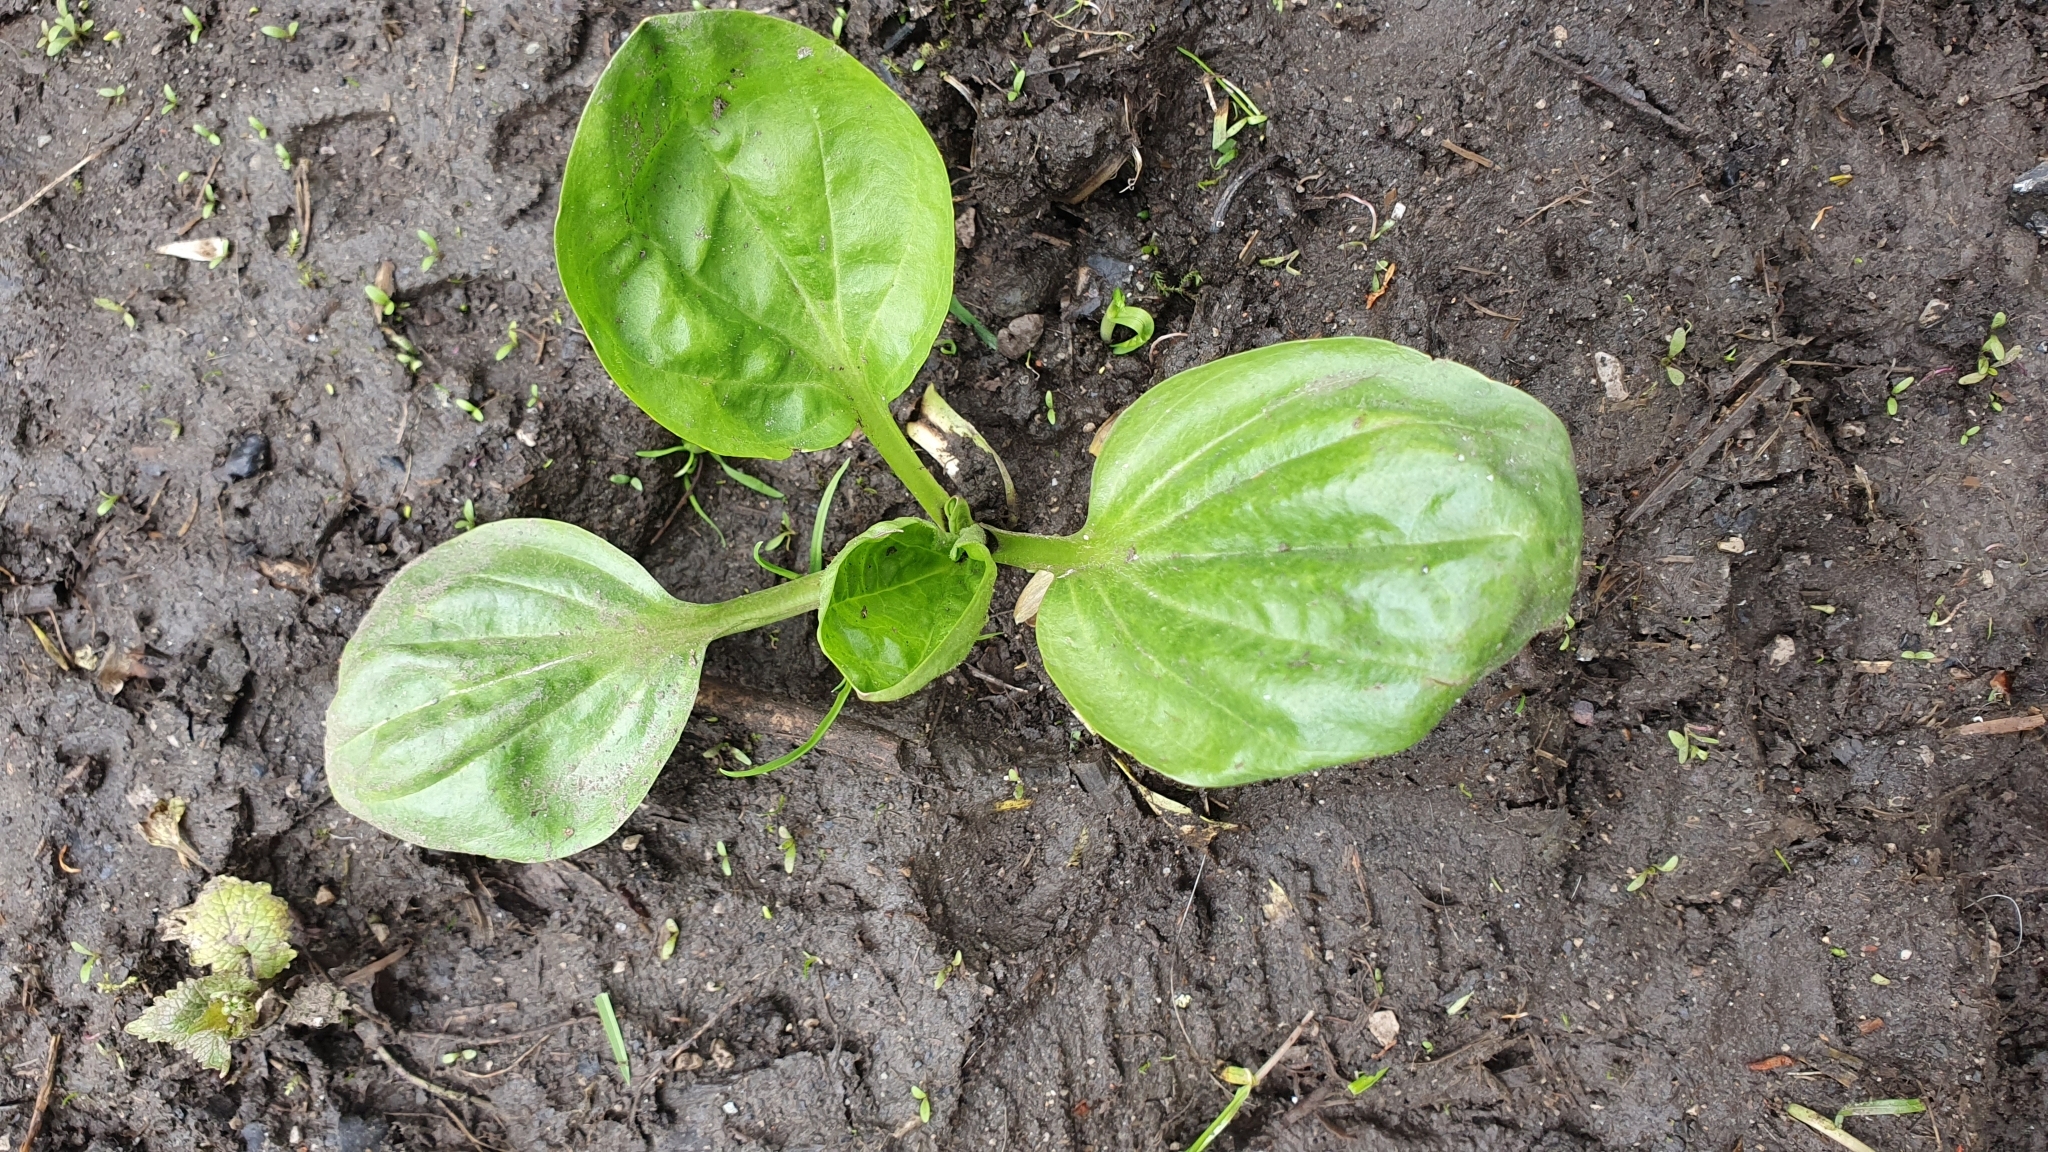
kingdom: Plantae
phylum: Tracheophyta
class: Magnoliopsida
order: Lamiales
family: Plantaginaceae
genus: Plantago
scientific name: Plantago major
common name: Common plantain
